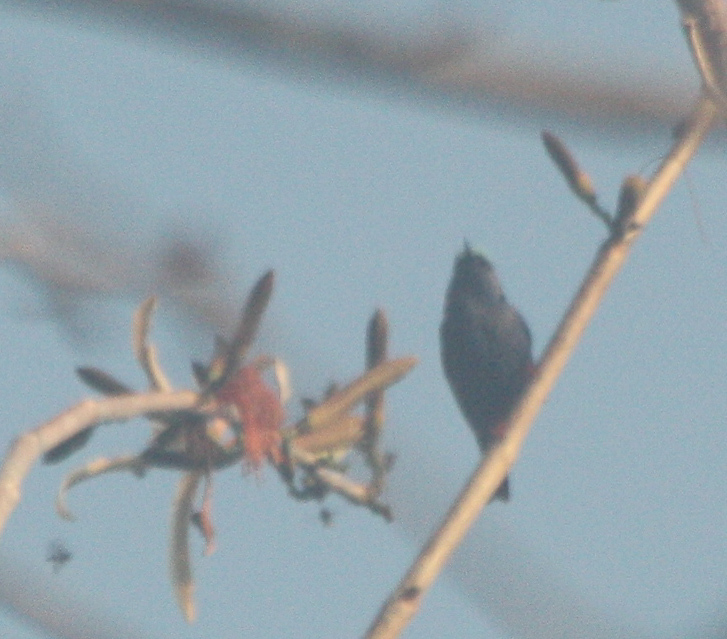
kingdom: Animalia
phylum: Chordata
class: Aves
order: Passeriformes
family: Thraupidae
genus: Cyanerpes
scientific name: Cyanerpes cyaneus
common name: Red-legged honeycreeper
